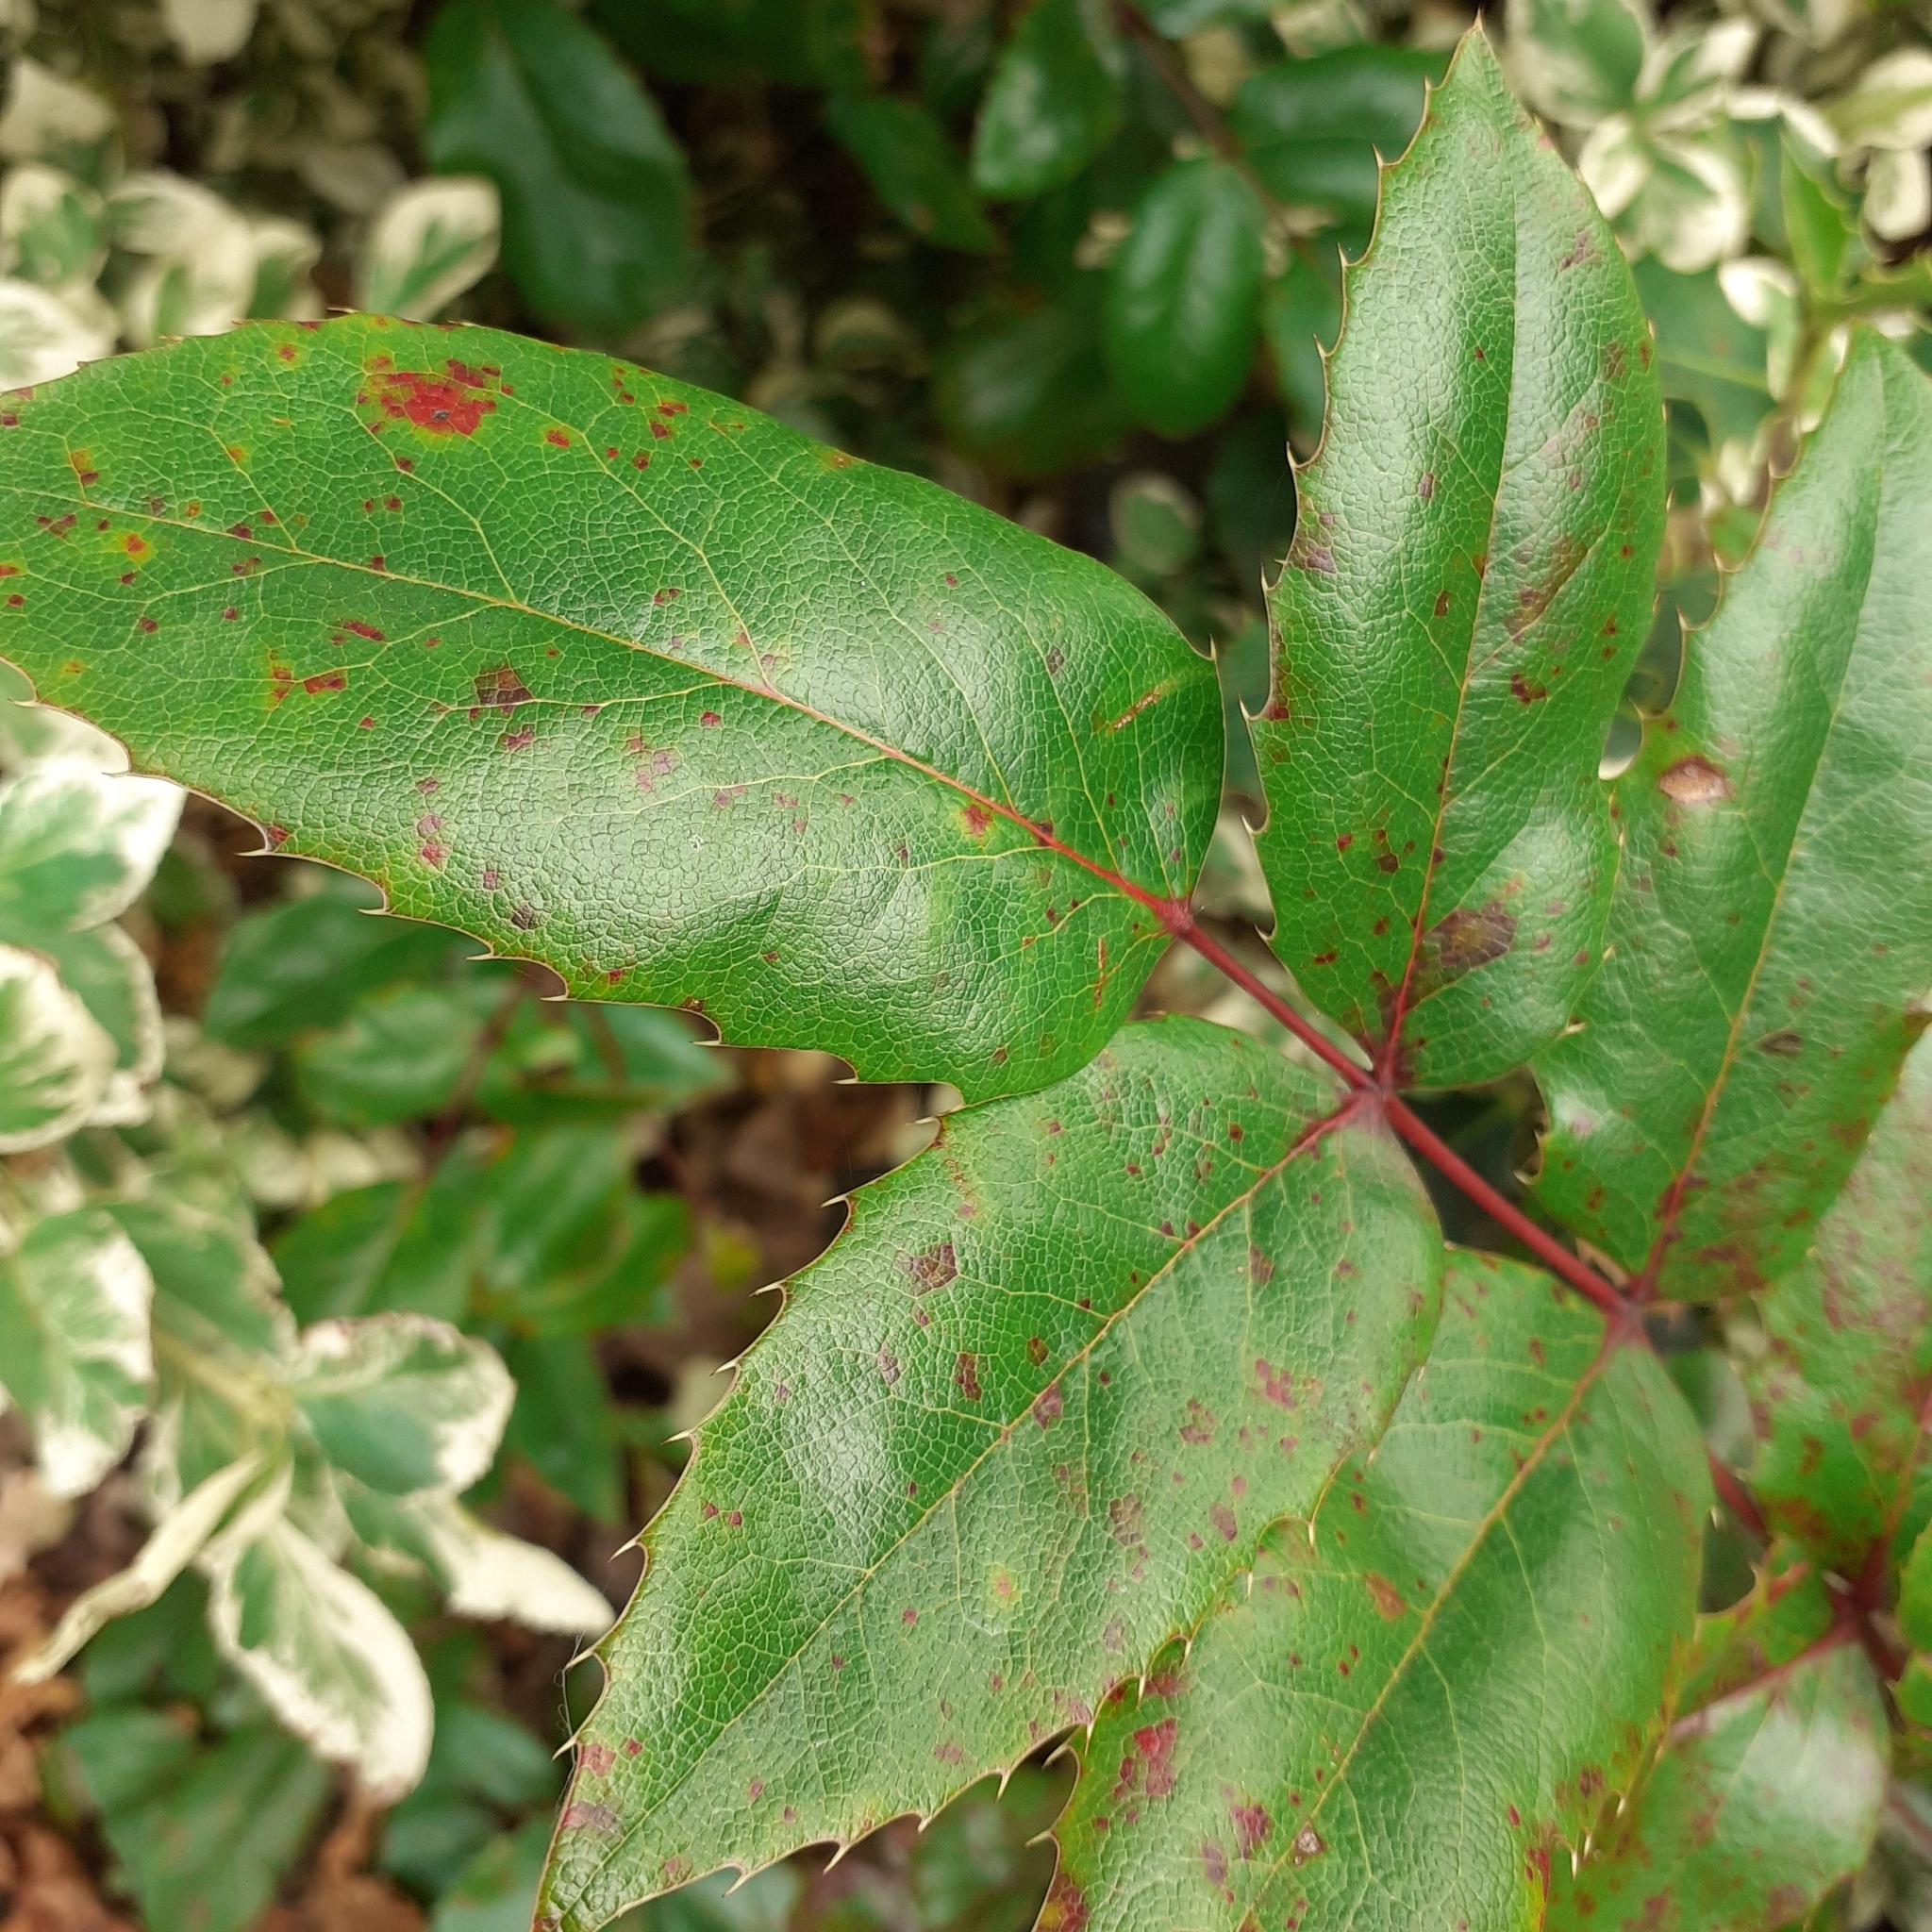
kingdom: Fungi
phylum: Basidiomycota
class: Pucciniomycetes
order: Pucciniales
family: Pucciniaceae
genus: Cumminsiella
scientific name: Cumminsiella mirabilissima
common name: Mahonia rust
